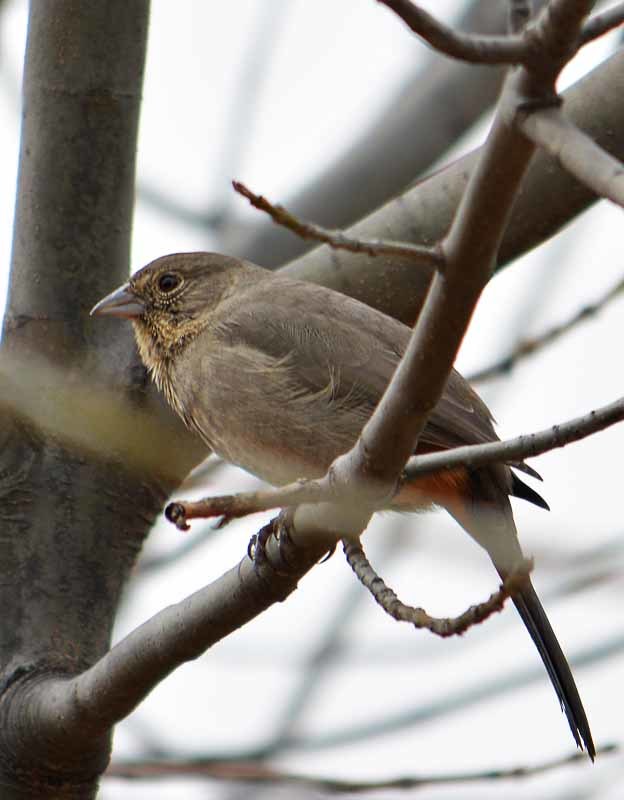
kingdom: Animalia
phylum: Chordata
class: Aves
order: Passeriformes
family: Passerellidae
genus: Melozone
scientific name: Melozone fusca
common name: Canyon towhee
